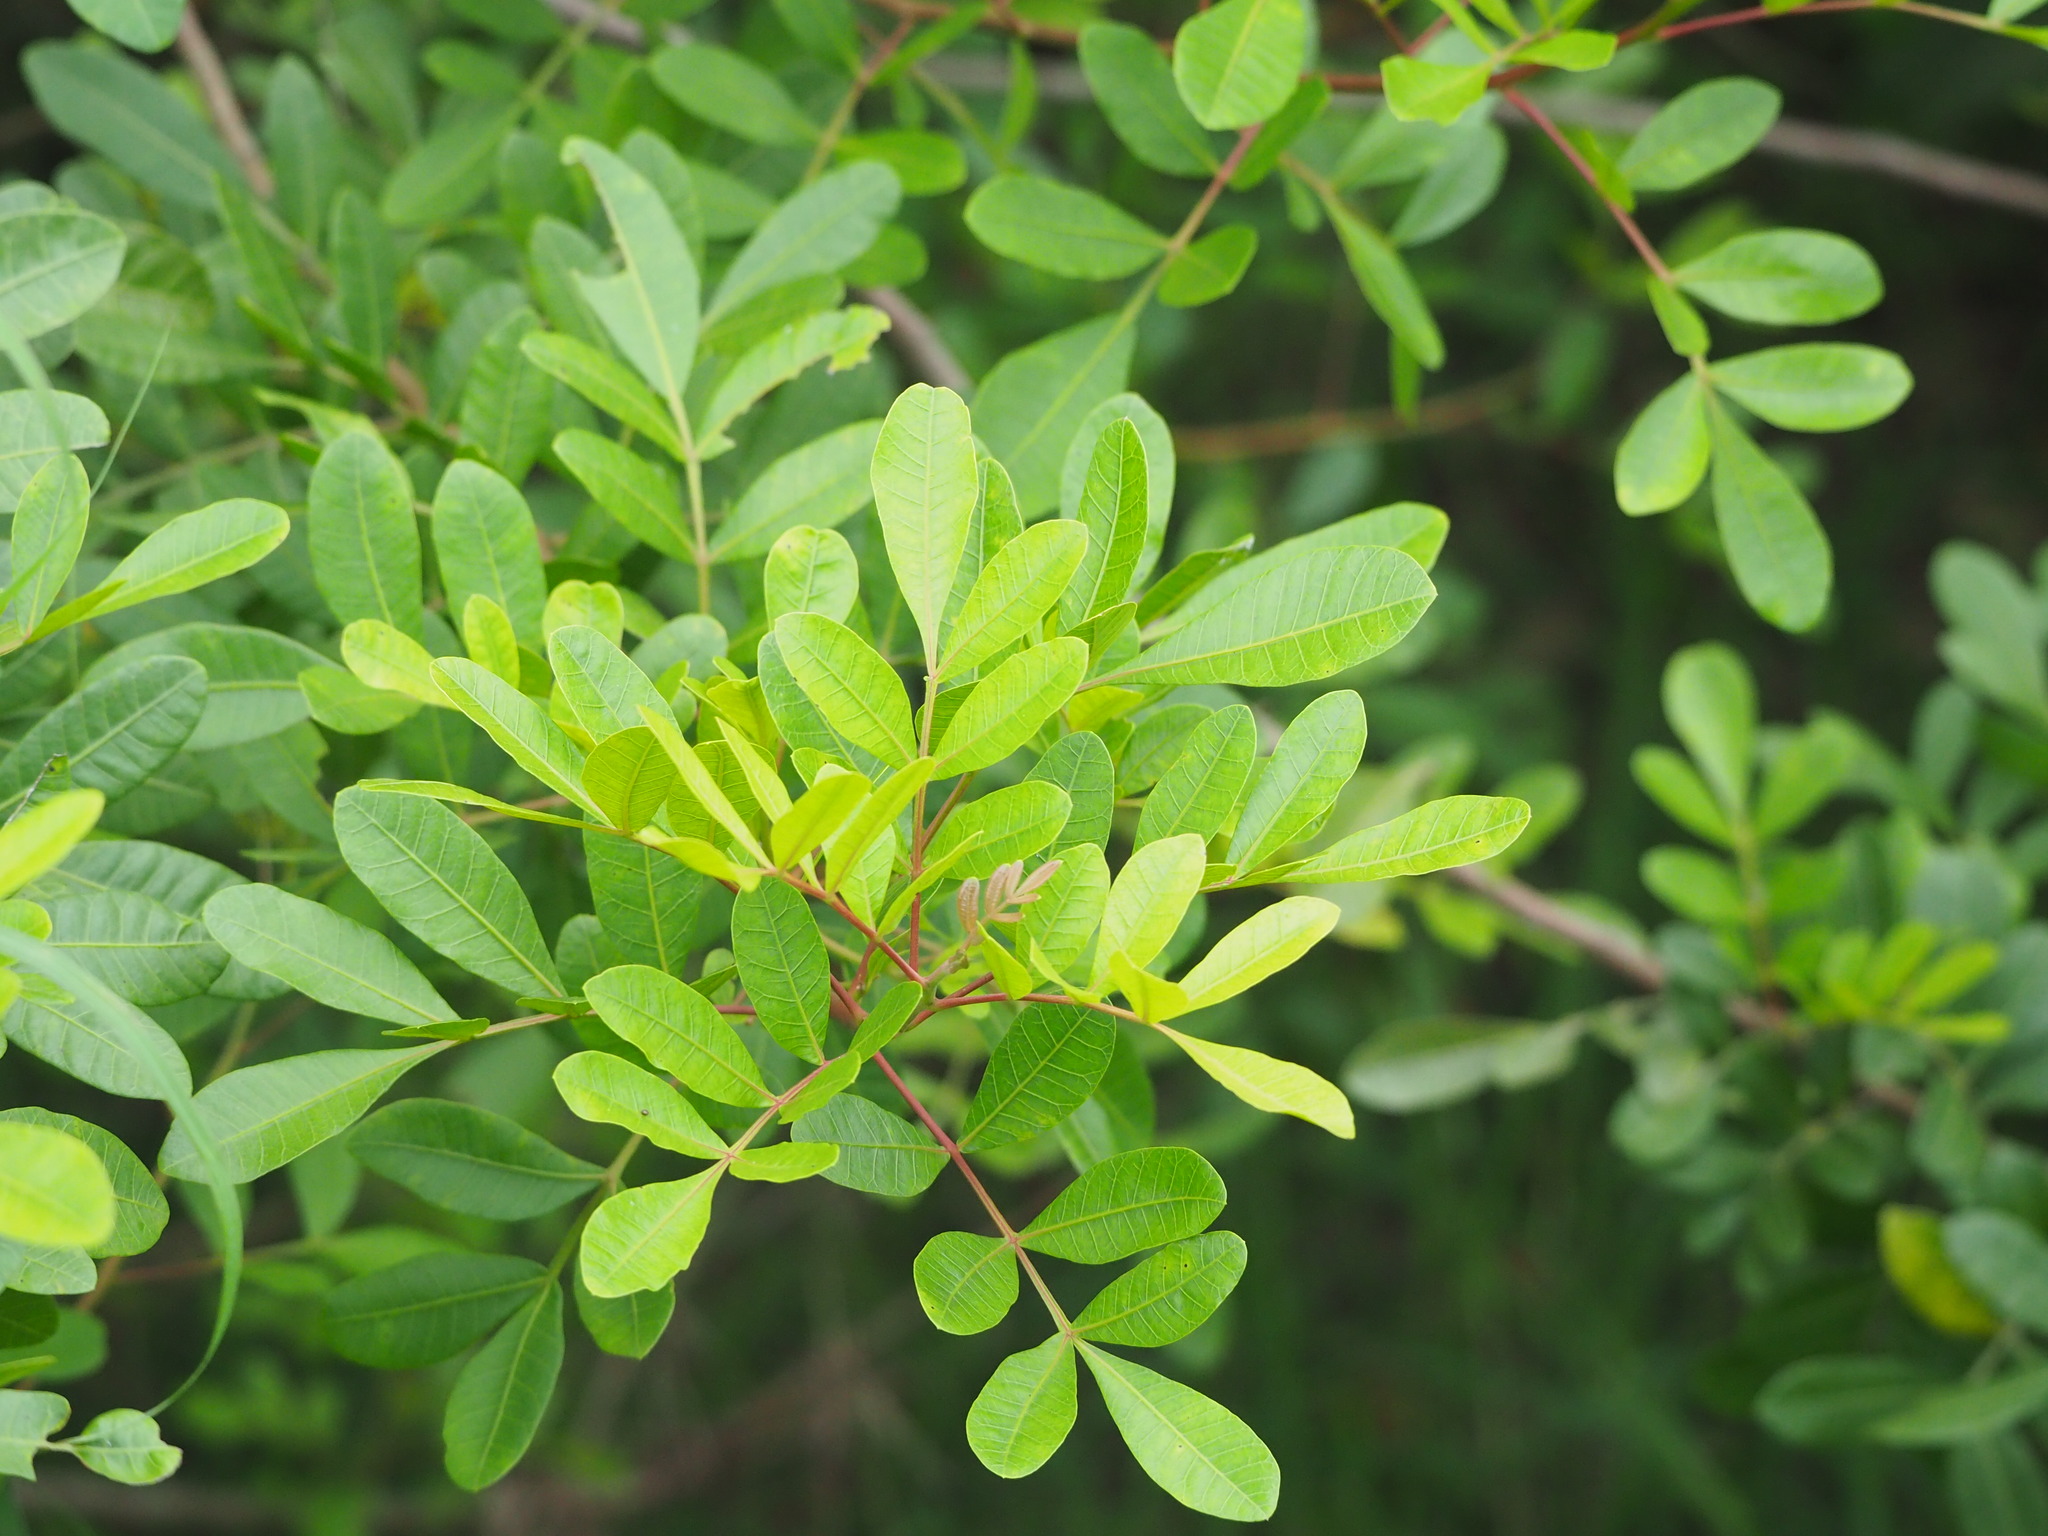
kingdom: Plantae
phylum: Tracheophyta
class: Magnoliopsida
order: Sapindales
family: Anacardiaceae
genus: Schinus
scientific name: Schinus terebinthifolia
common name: Brazilian peppertree
